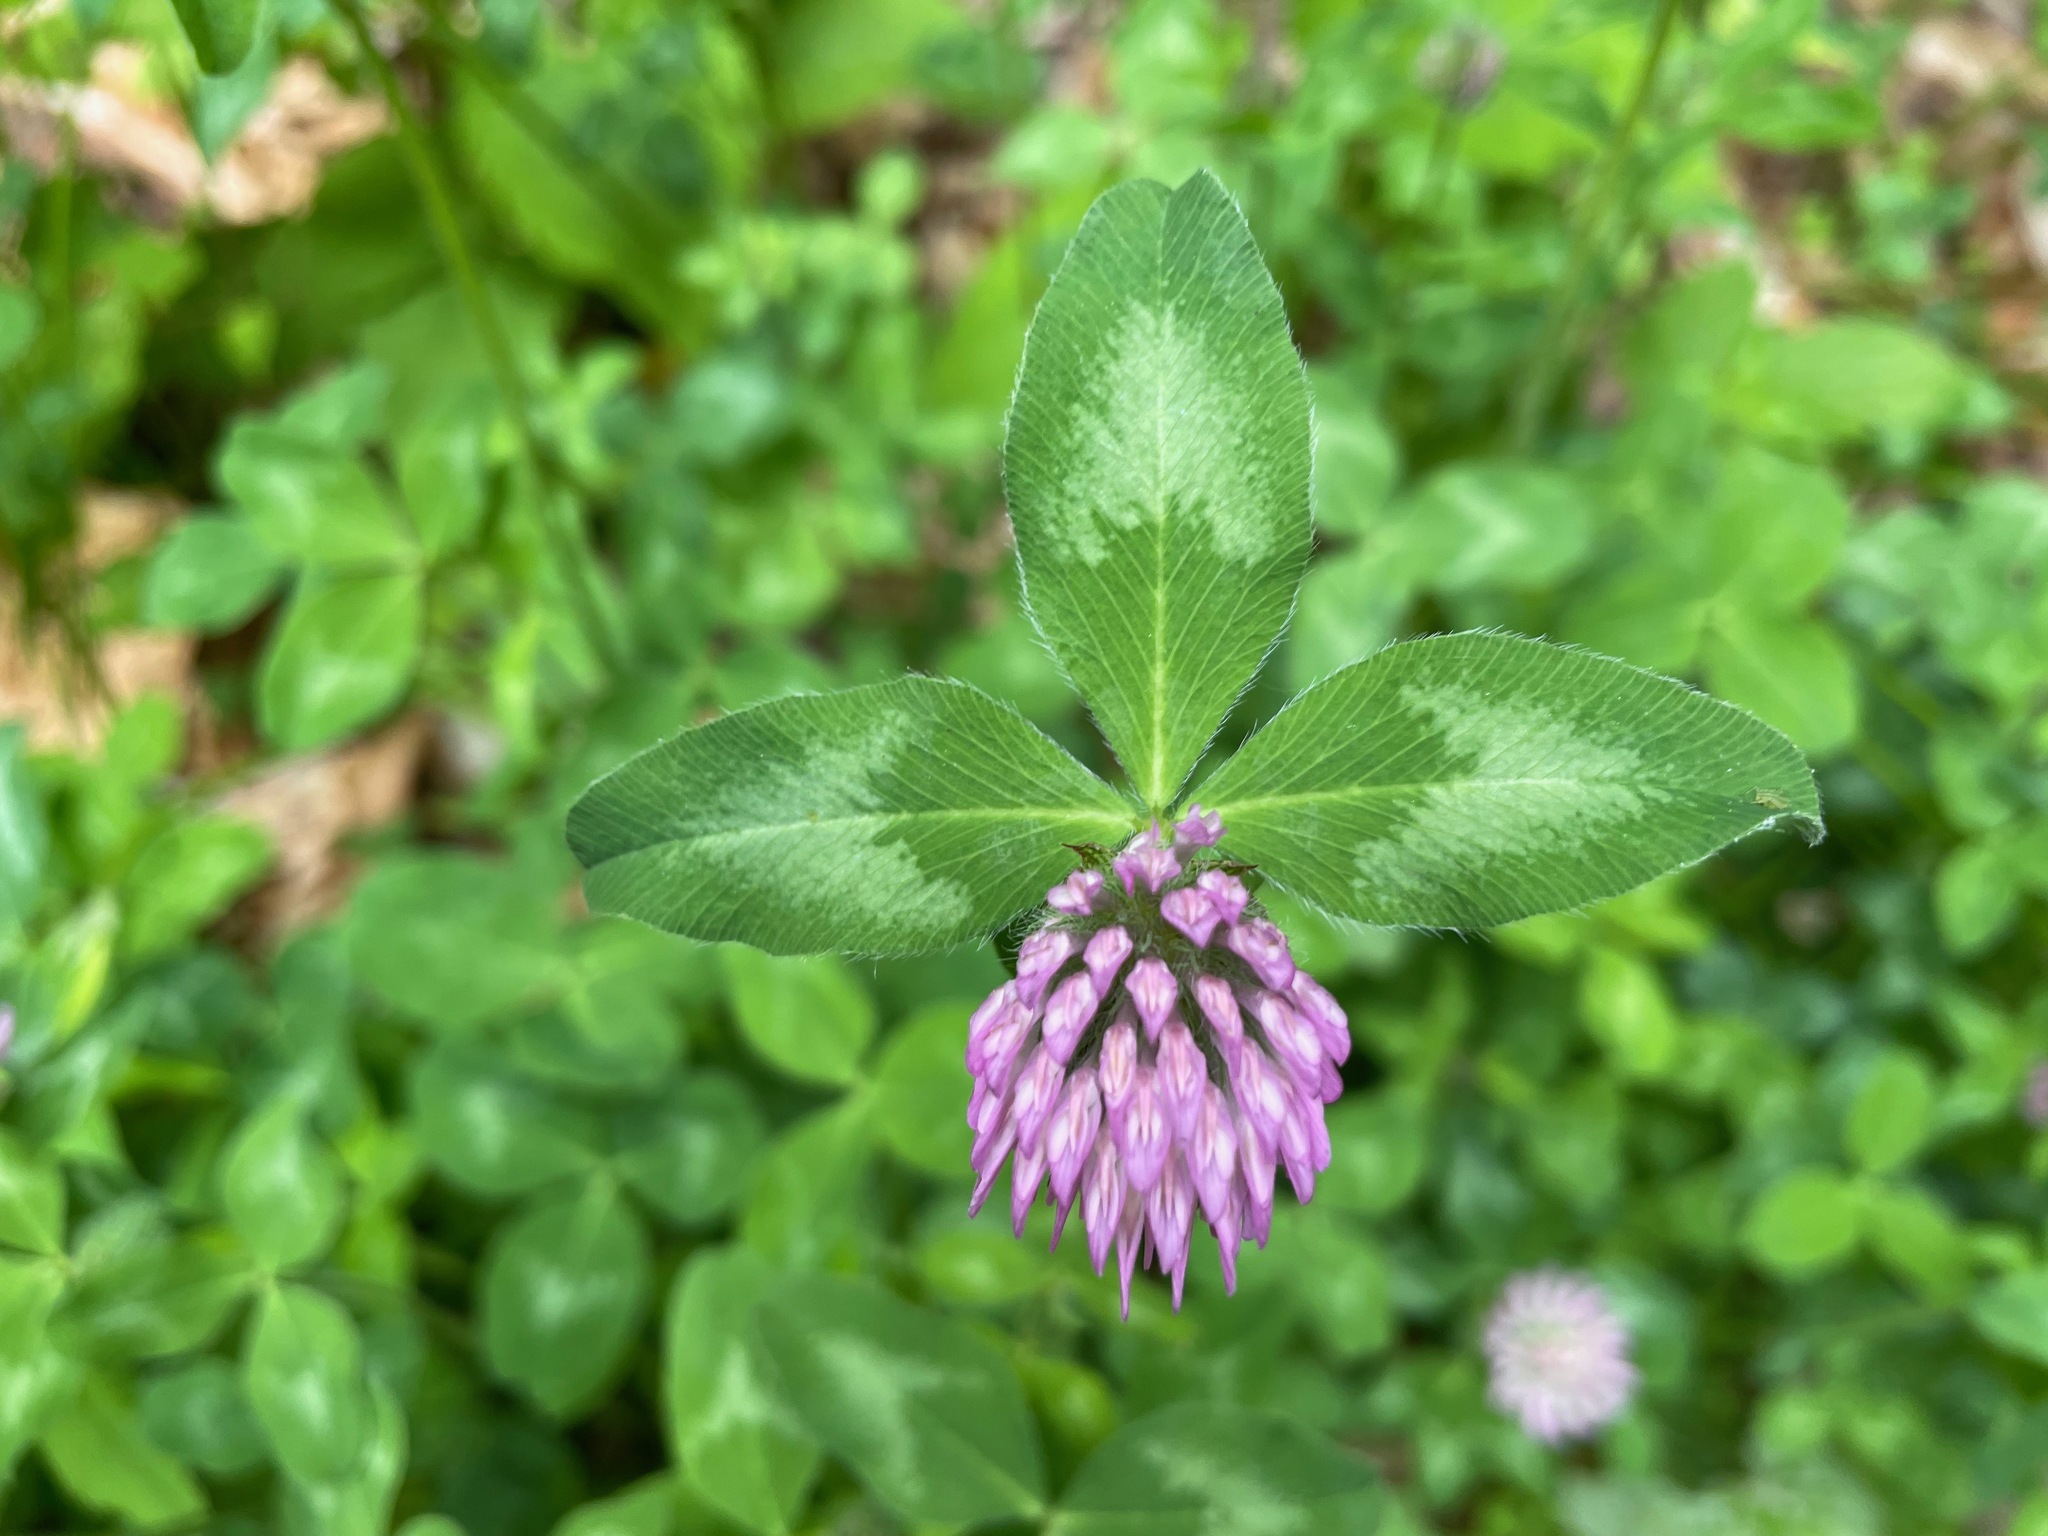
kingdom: Plantae
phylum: Tracheophyta
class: Magnoliopsida
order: Fabales
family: Fabaceae
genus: Trifolium
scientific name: Trifolium pratense
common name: Red clover
